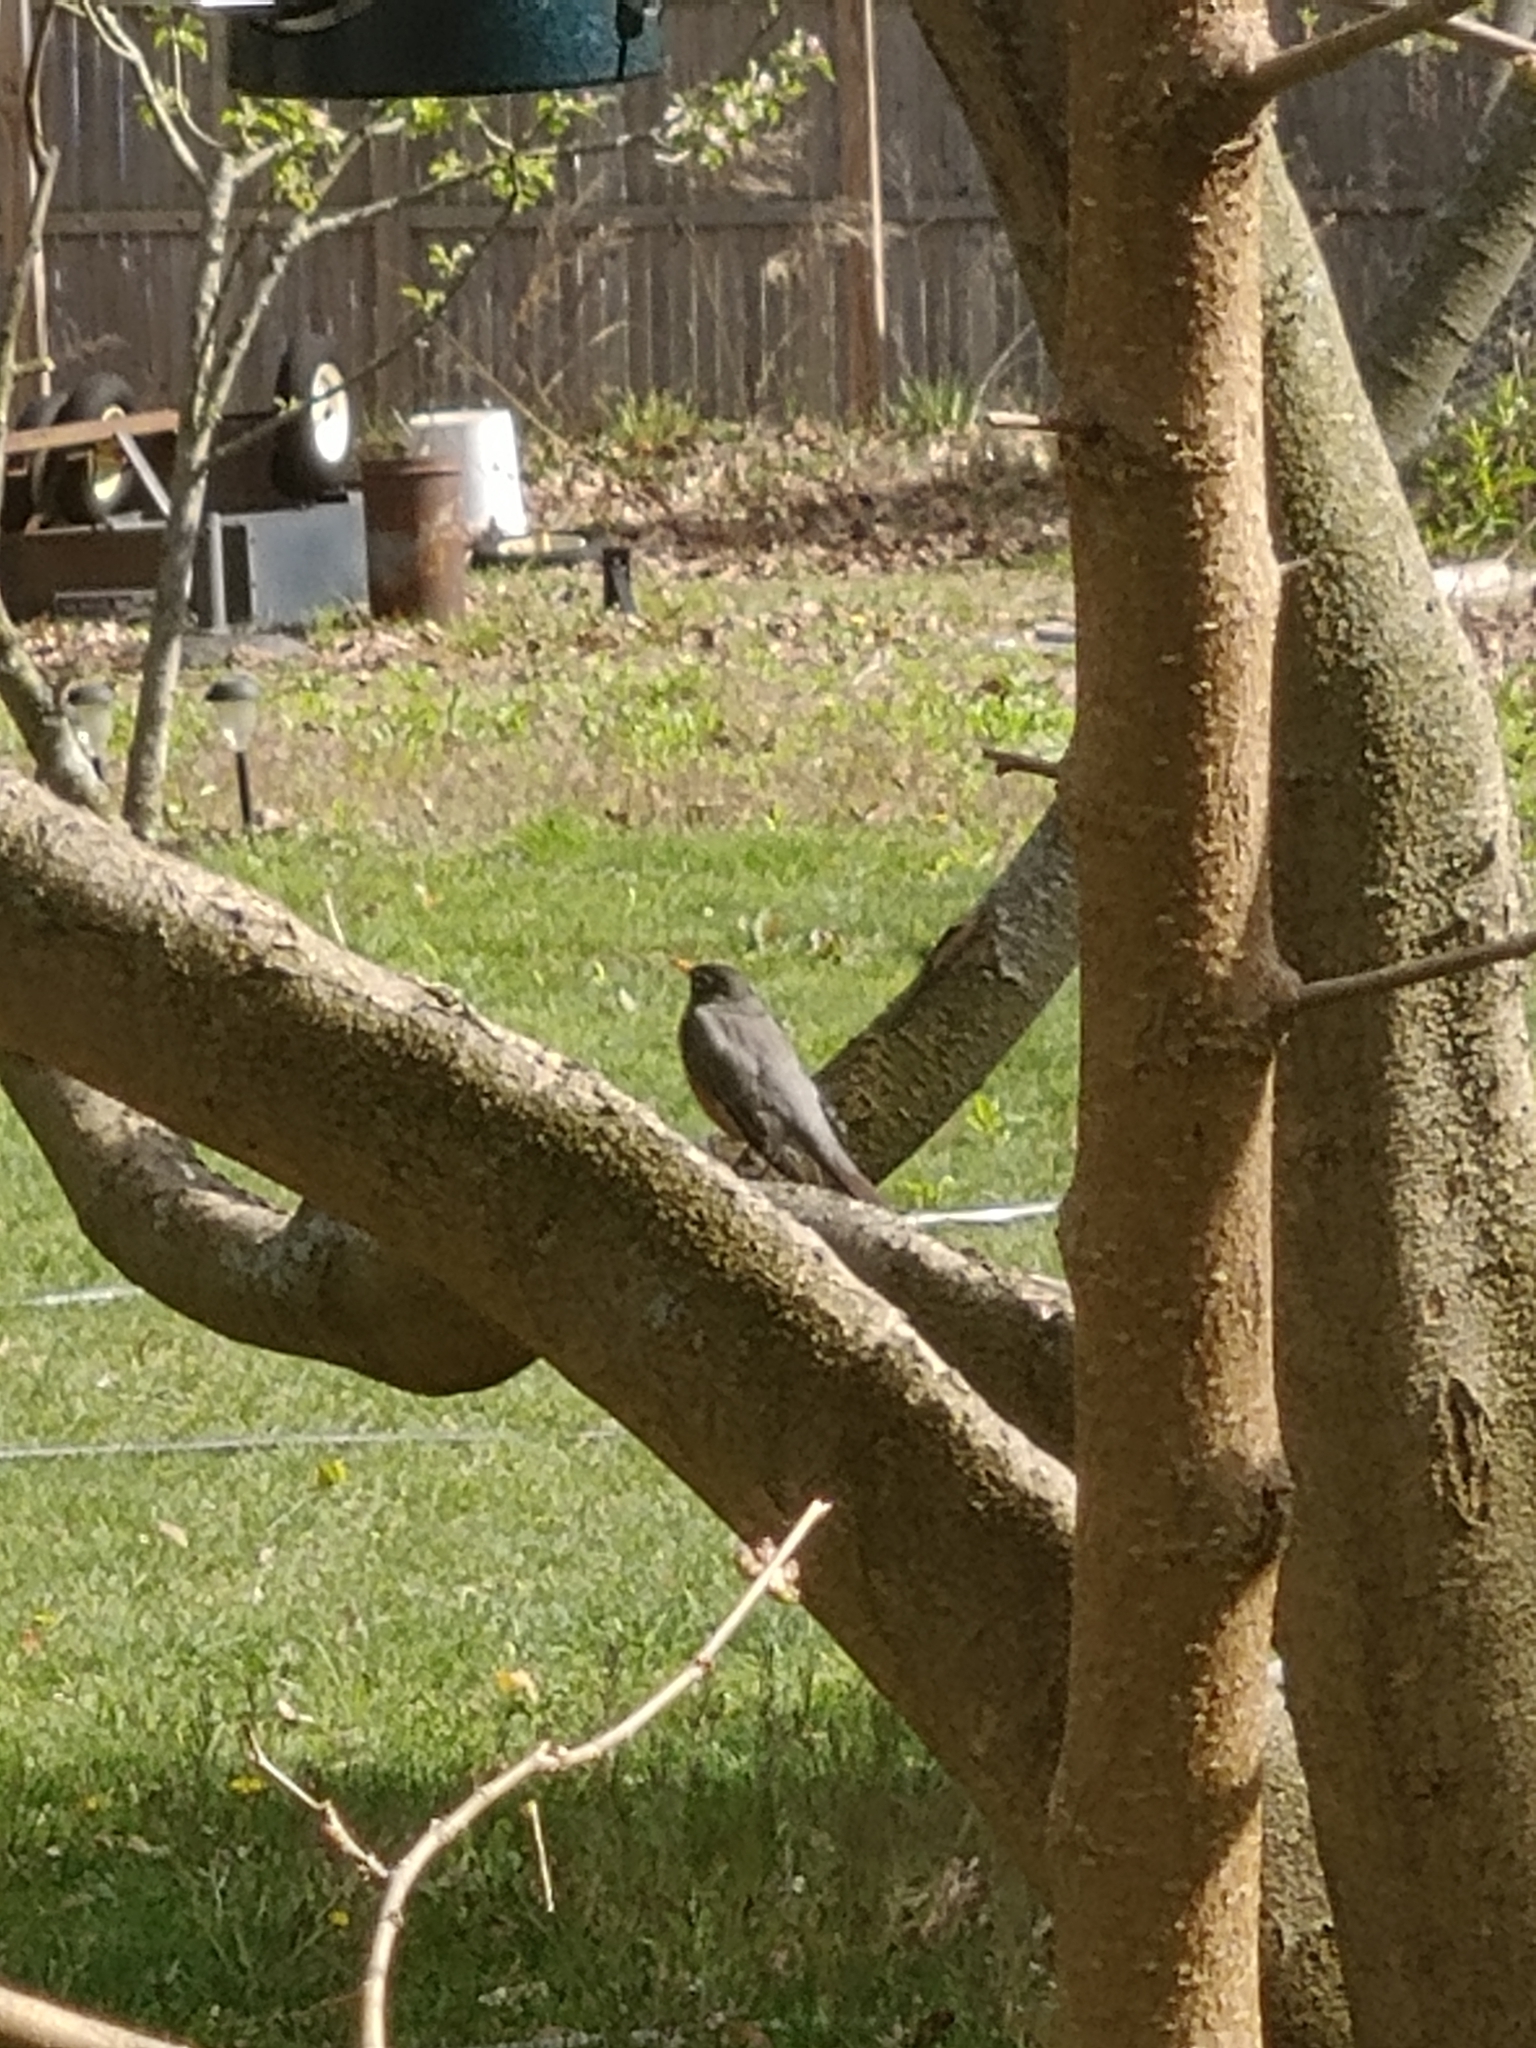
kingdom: Animalia
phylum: Chordata
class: Aves
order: Passeriformes
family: Turdidae
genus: Turdus
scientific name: Turdus migratorius
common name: American robin
